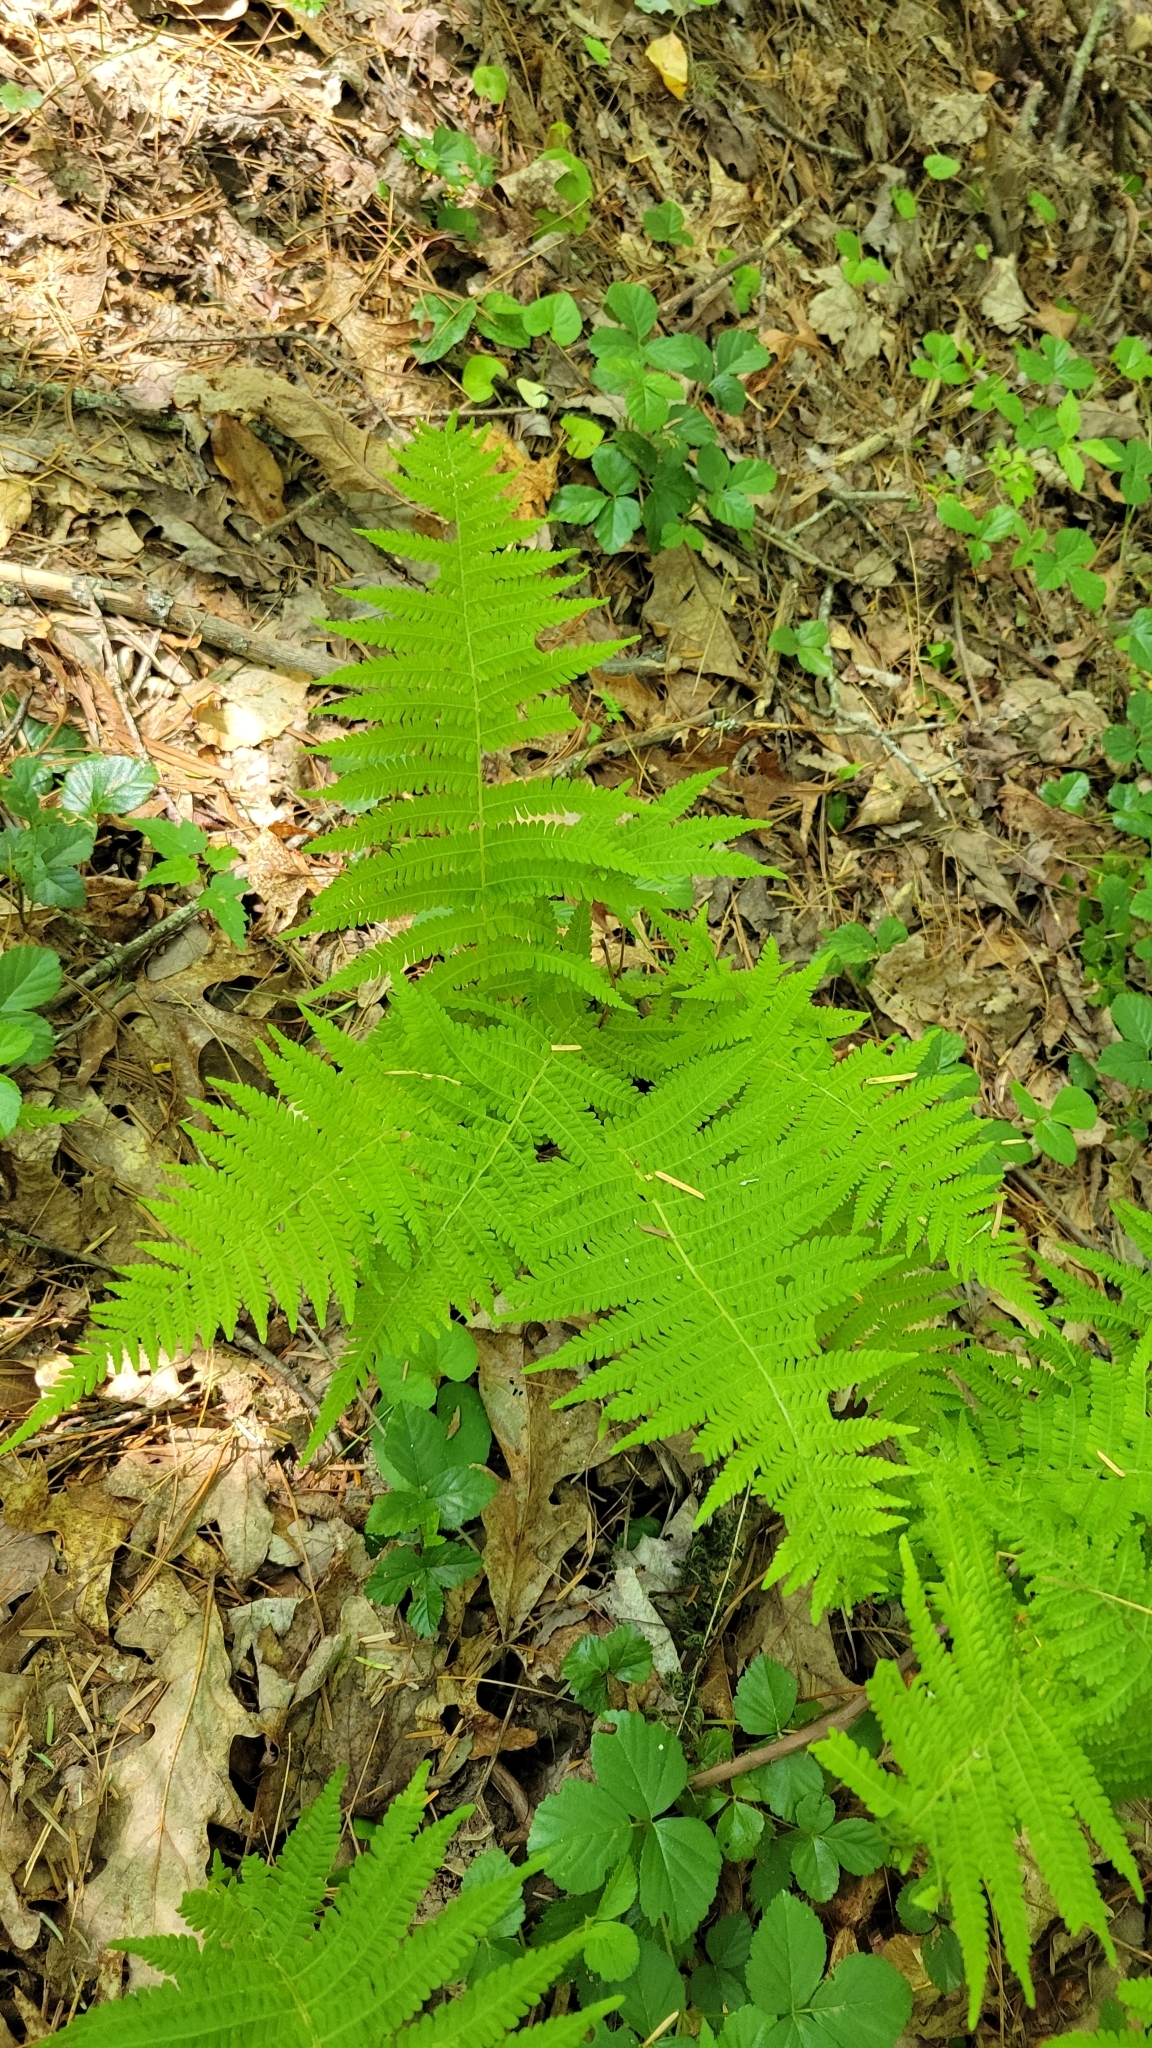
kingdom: Plantae
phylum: Tracheophyta
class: Polypodiopsida
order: Polypodiales
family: Thelypteridaceae
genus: Amauropelta
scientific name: Amauropelta noveboracensis
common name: New york fern
